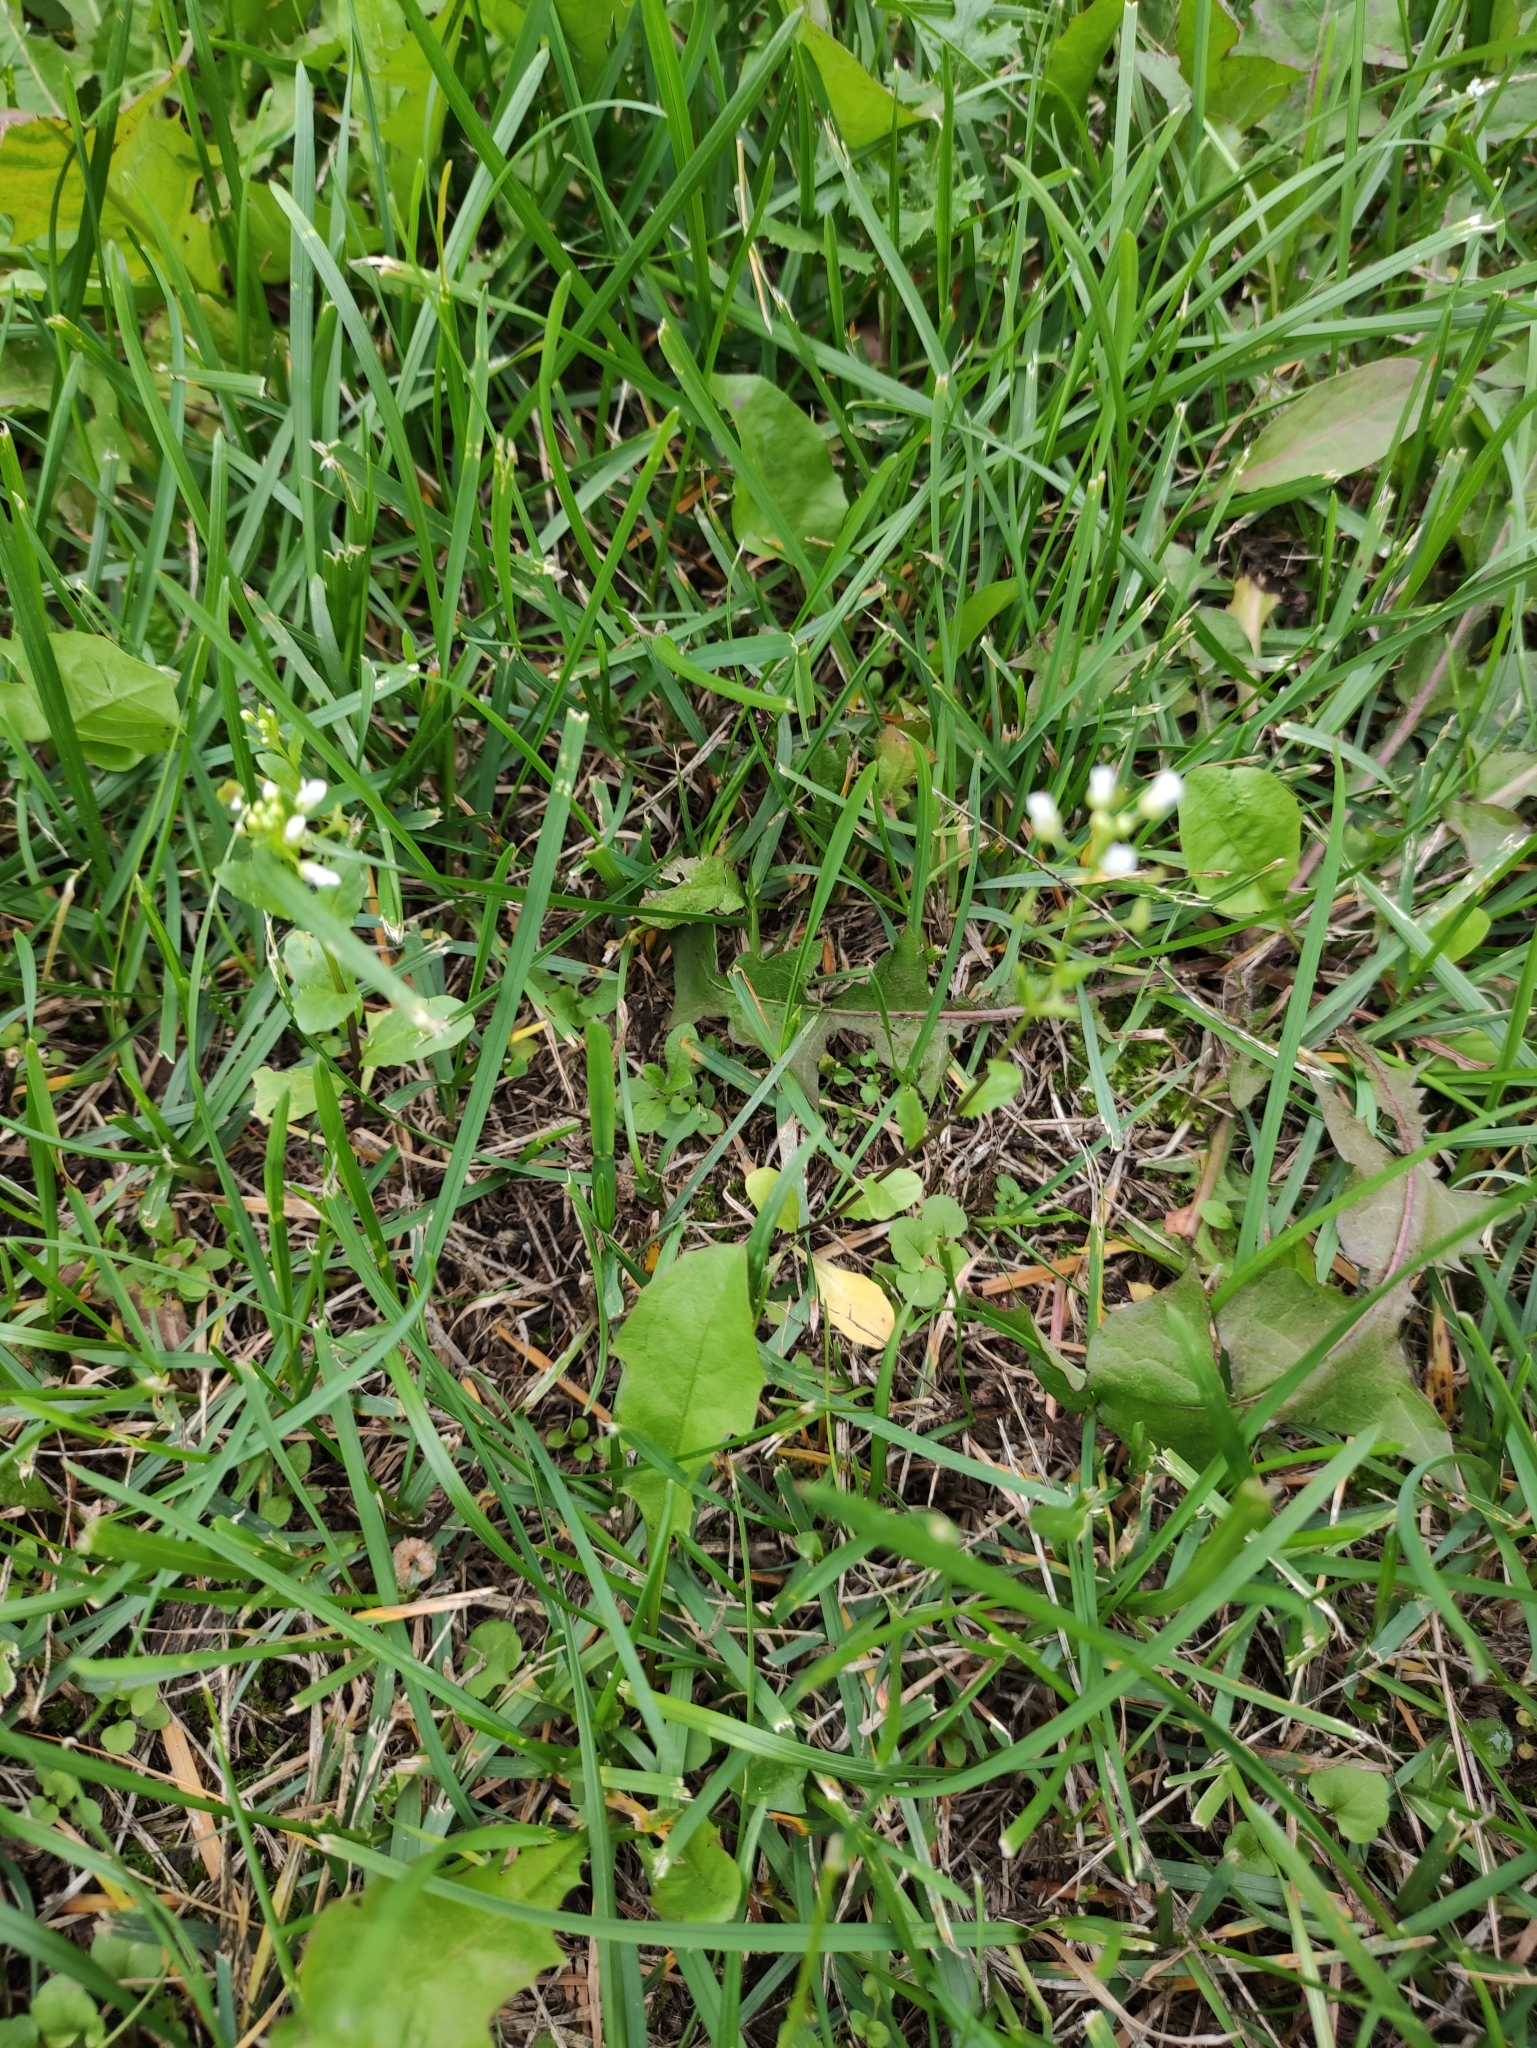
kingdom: Plantae
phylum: Tracheophyta
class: Magnoliopsida
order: Brassicales
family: Brassicaceae
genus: Thlaspi
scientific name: Thlaspi arvense
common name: Field pennycress
